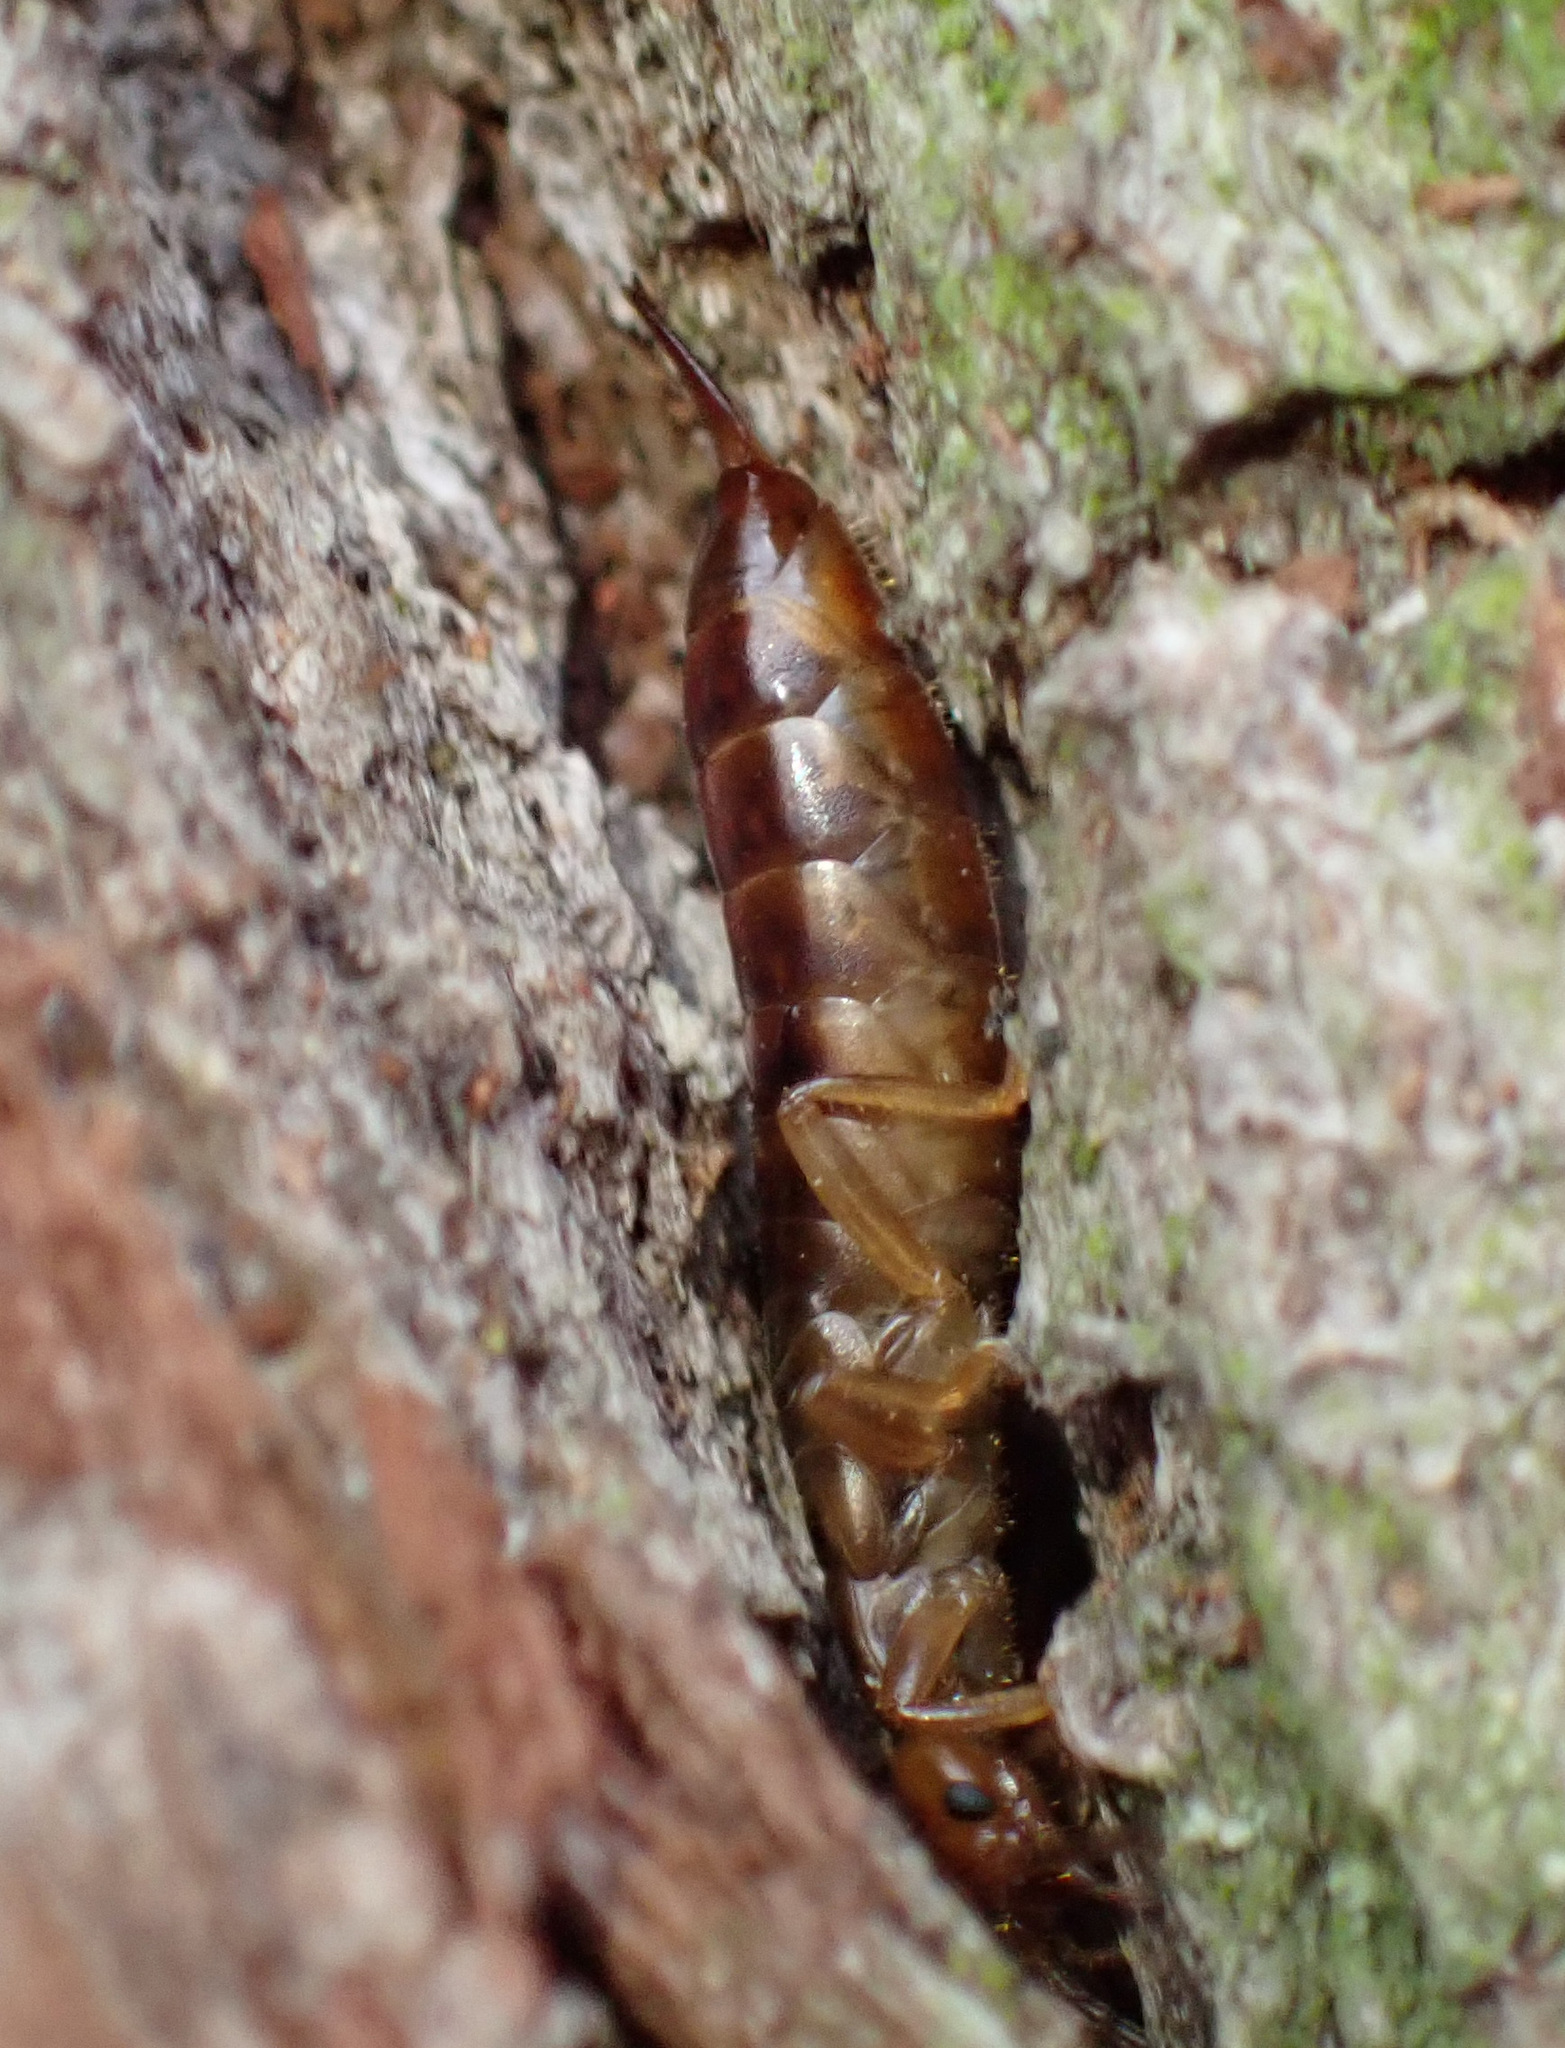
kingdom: Animalia
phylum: Arthropoda
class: Insecta
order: Dermaptera
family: Forficulidae
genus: Chelidurella
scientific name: Chelidurella acanthopygia
